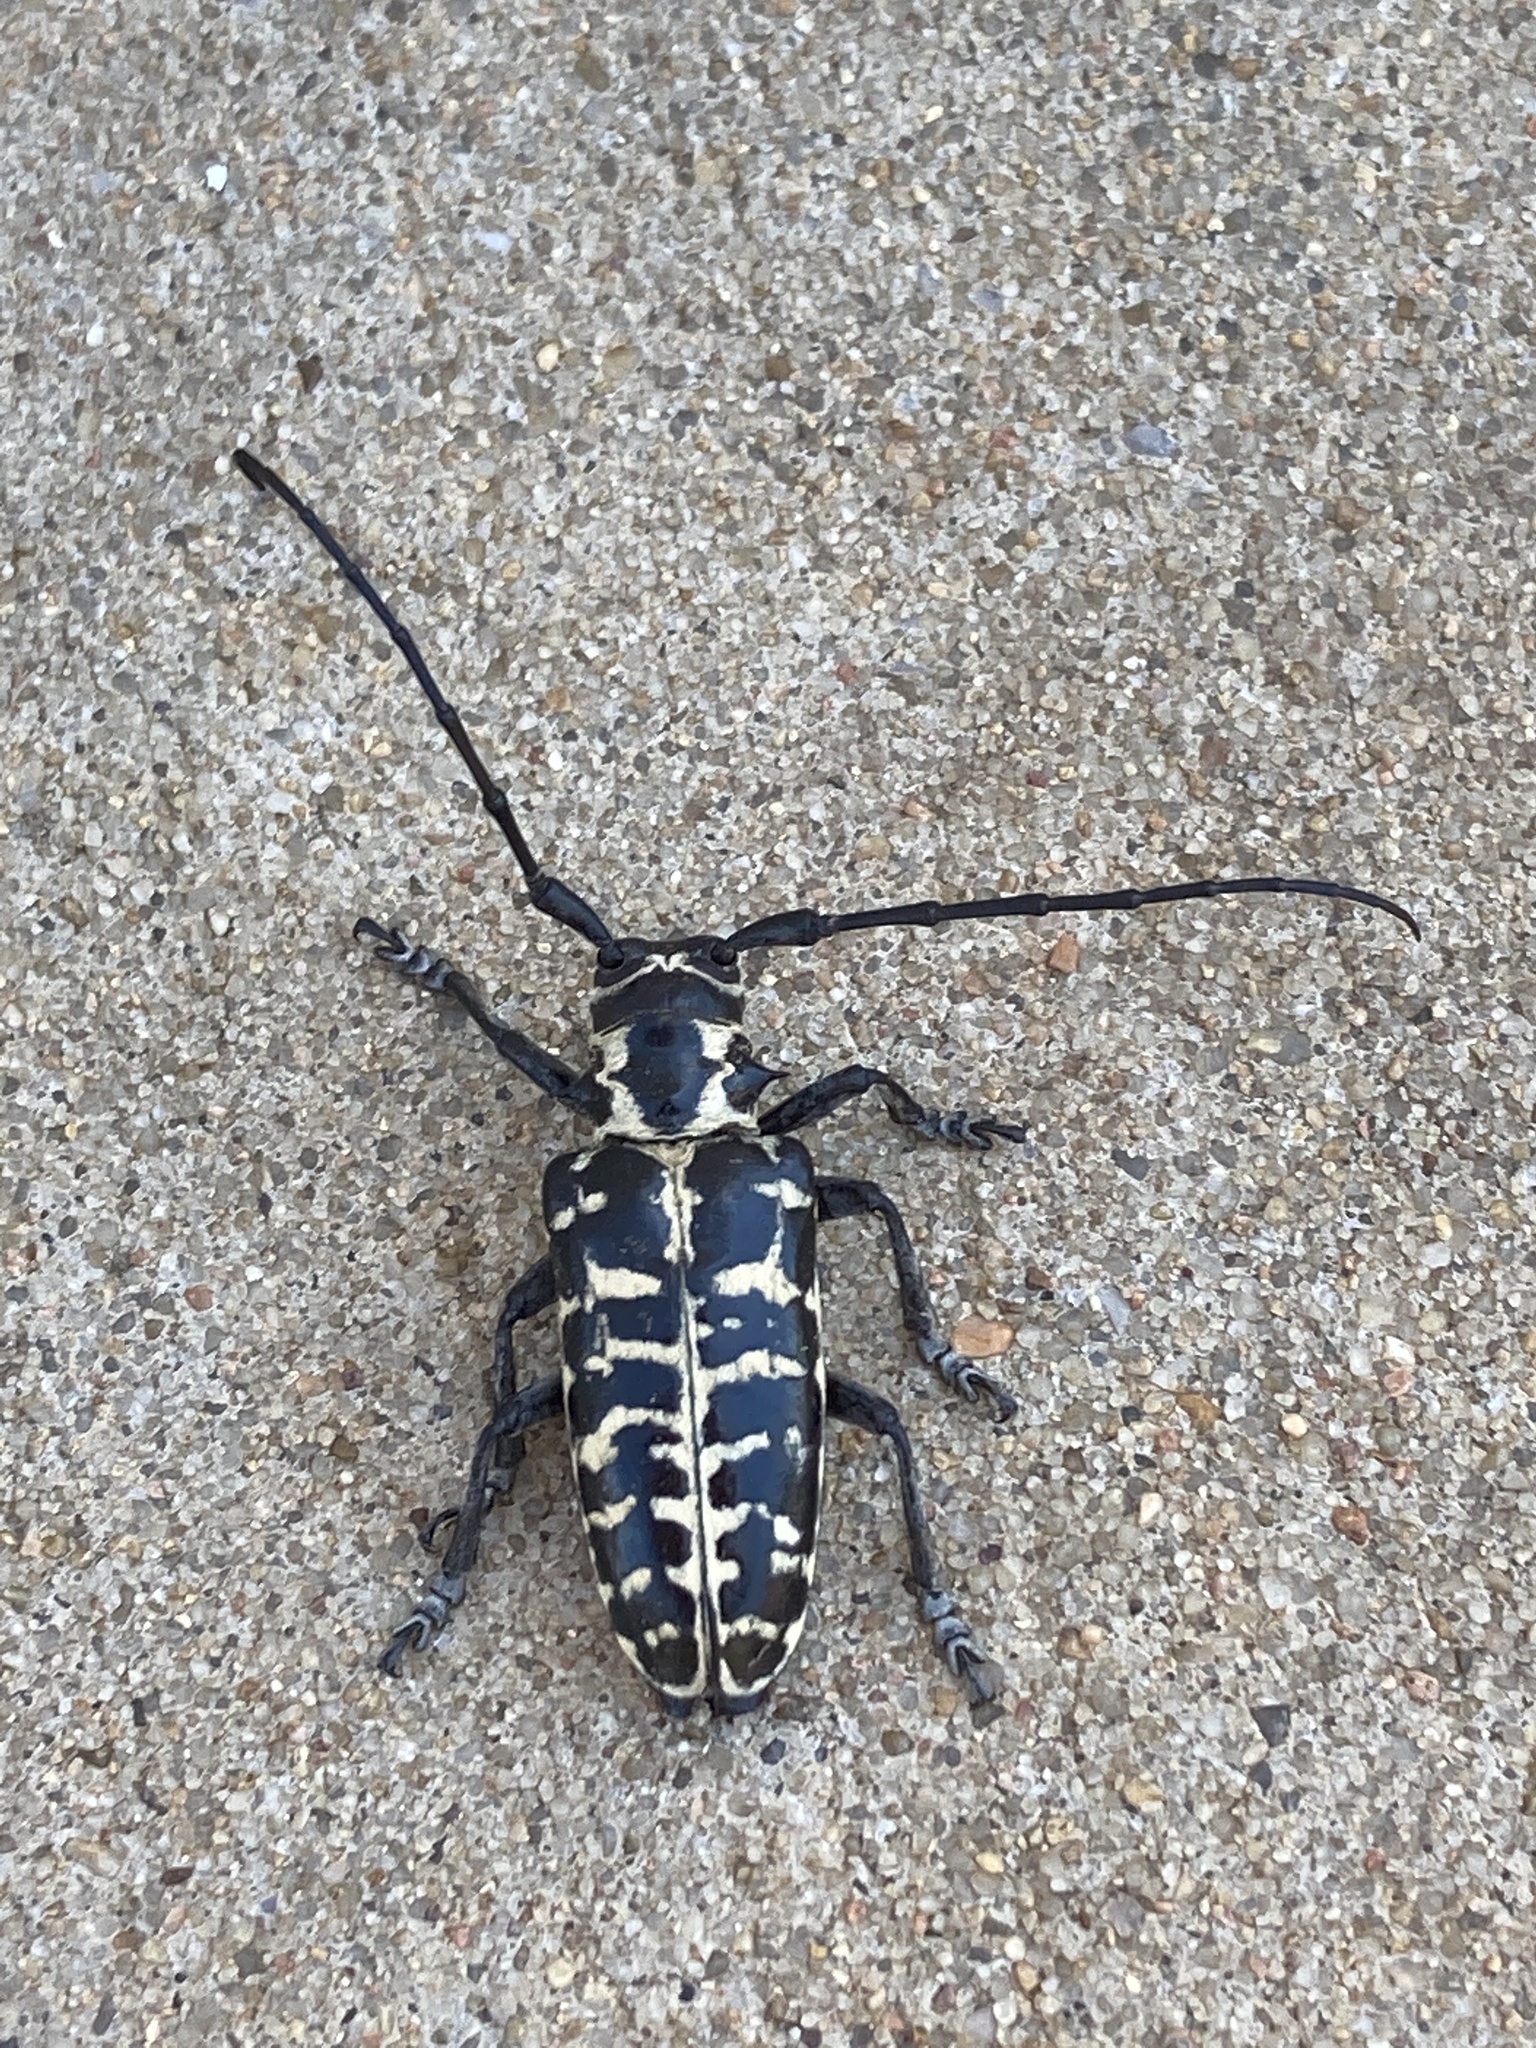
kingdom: Animalia
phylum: Arthropoda
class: Insecta
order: Coleoptera
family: Cerambycidae
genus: Plectrodera
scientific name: Plectrodera scalator
